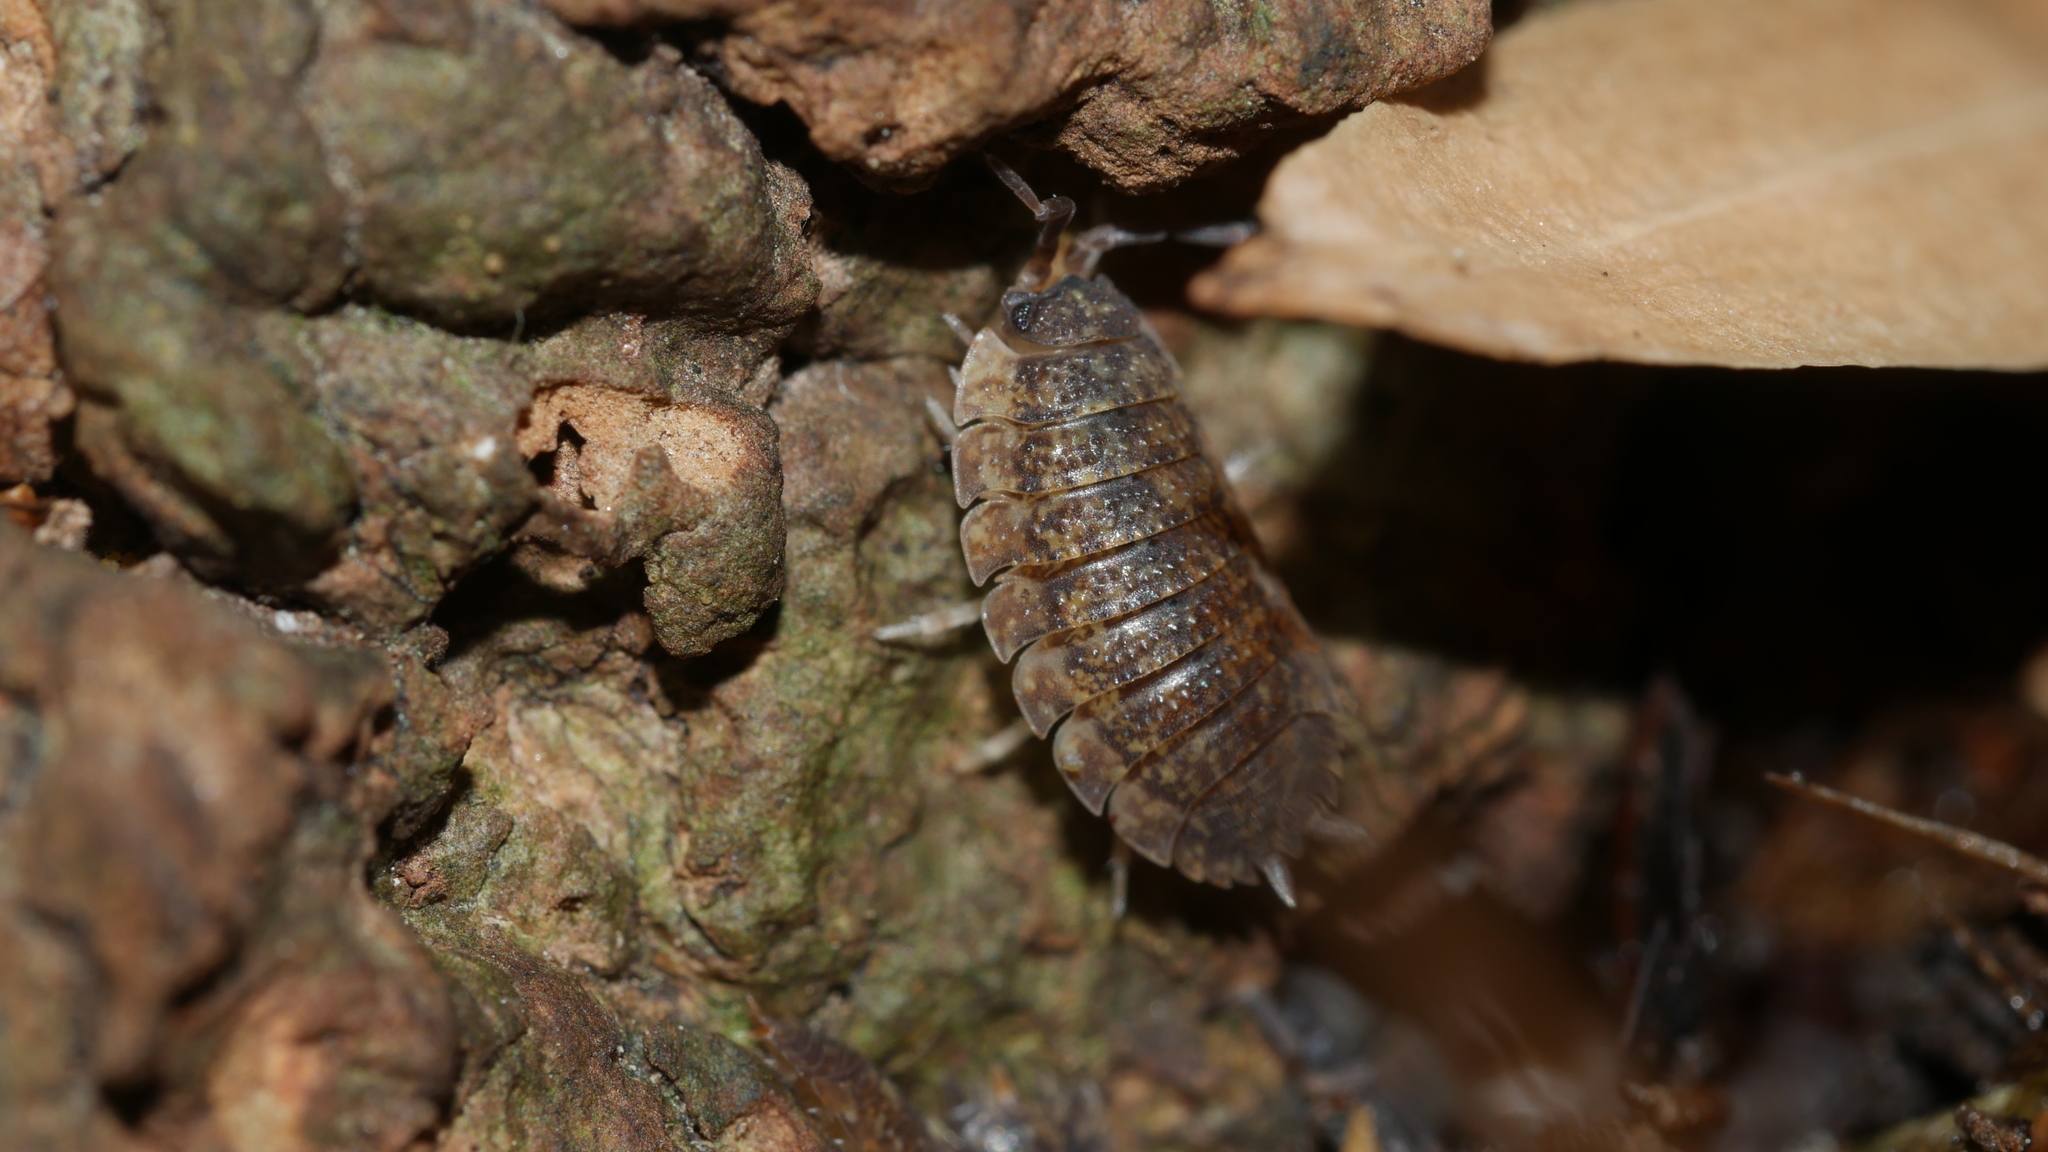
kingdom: Animalia
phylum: Arthropoda
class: Malacostraca
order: Isopoda
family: Porcellionidae
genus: Porcellio
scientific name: Porcellio scaber
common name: Common rough woodlouse
